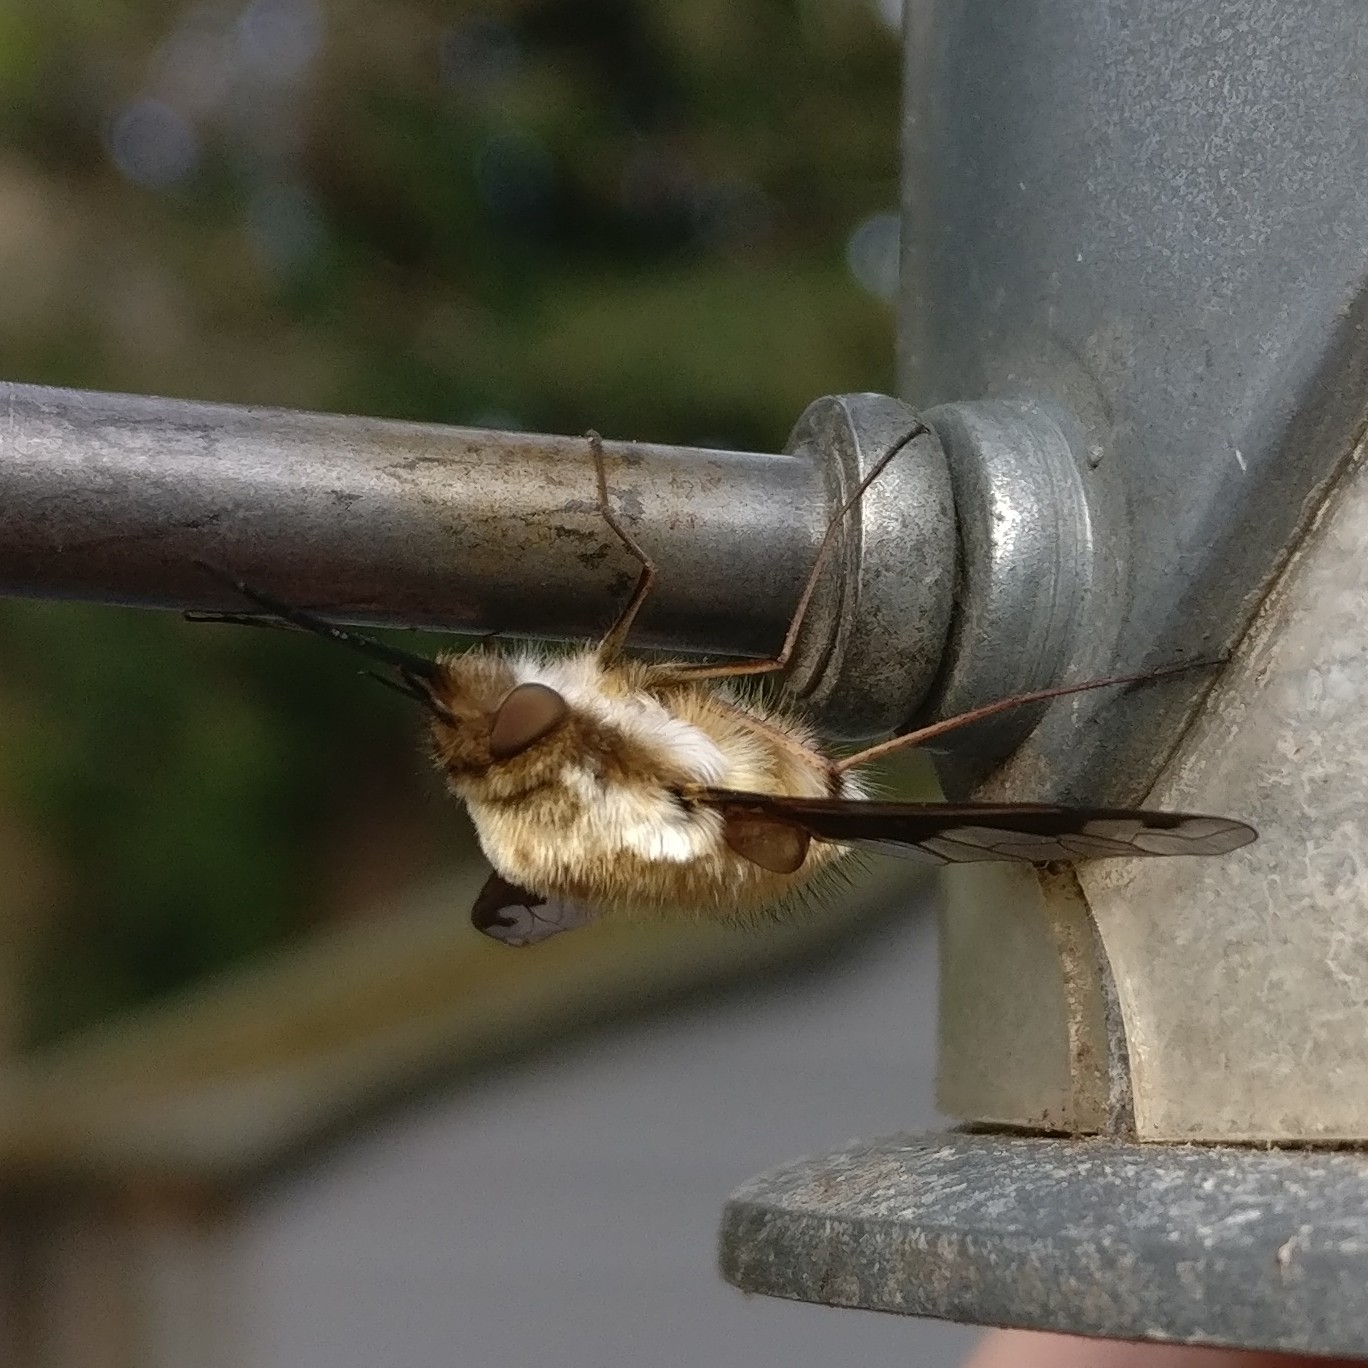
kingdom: Animalia
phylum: Arthropoda
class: Insecta
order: Diptera
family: Bombyliidae
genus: Bombylius
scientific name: Bombylius major
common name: Bee fly
